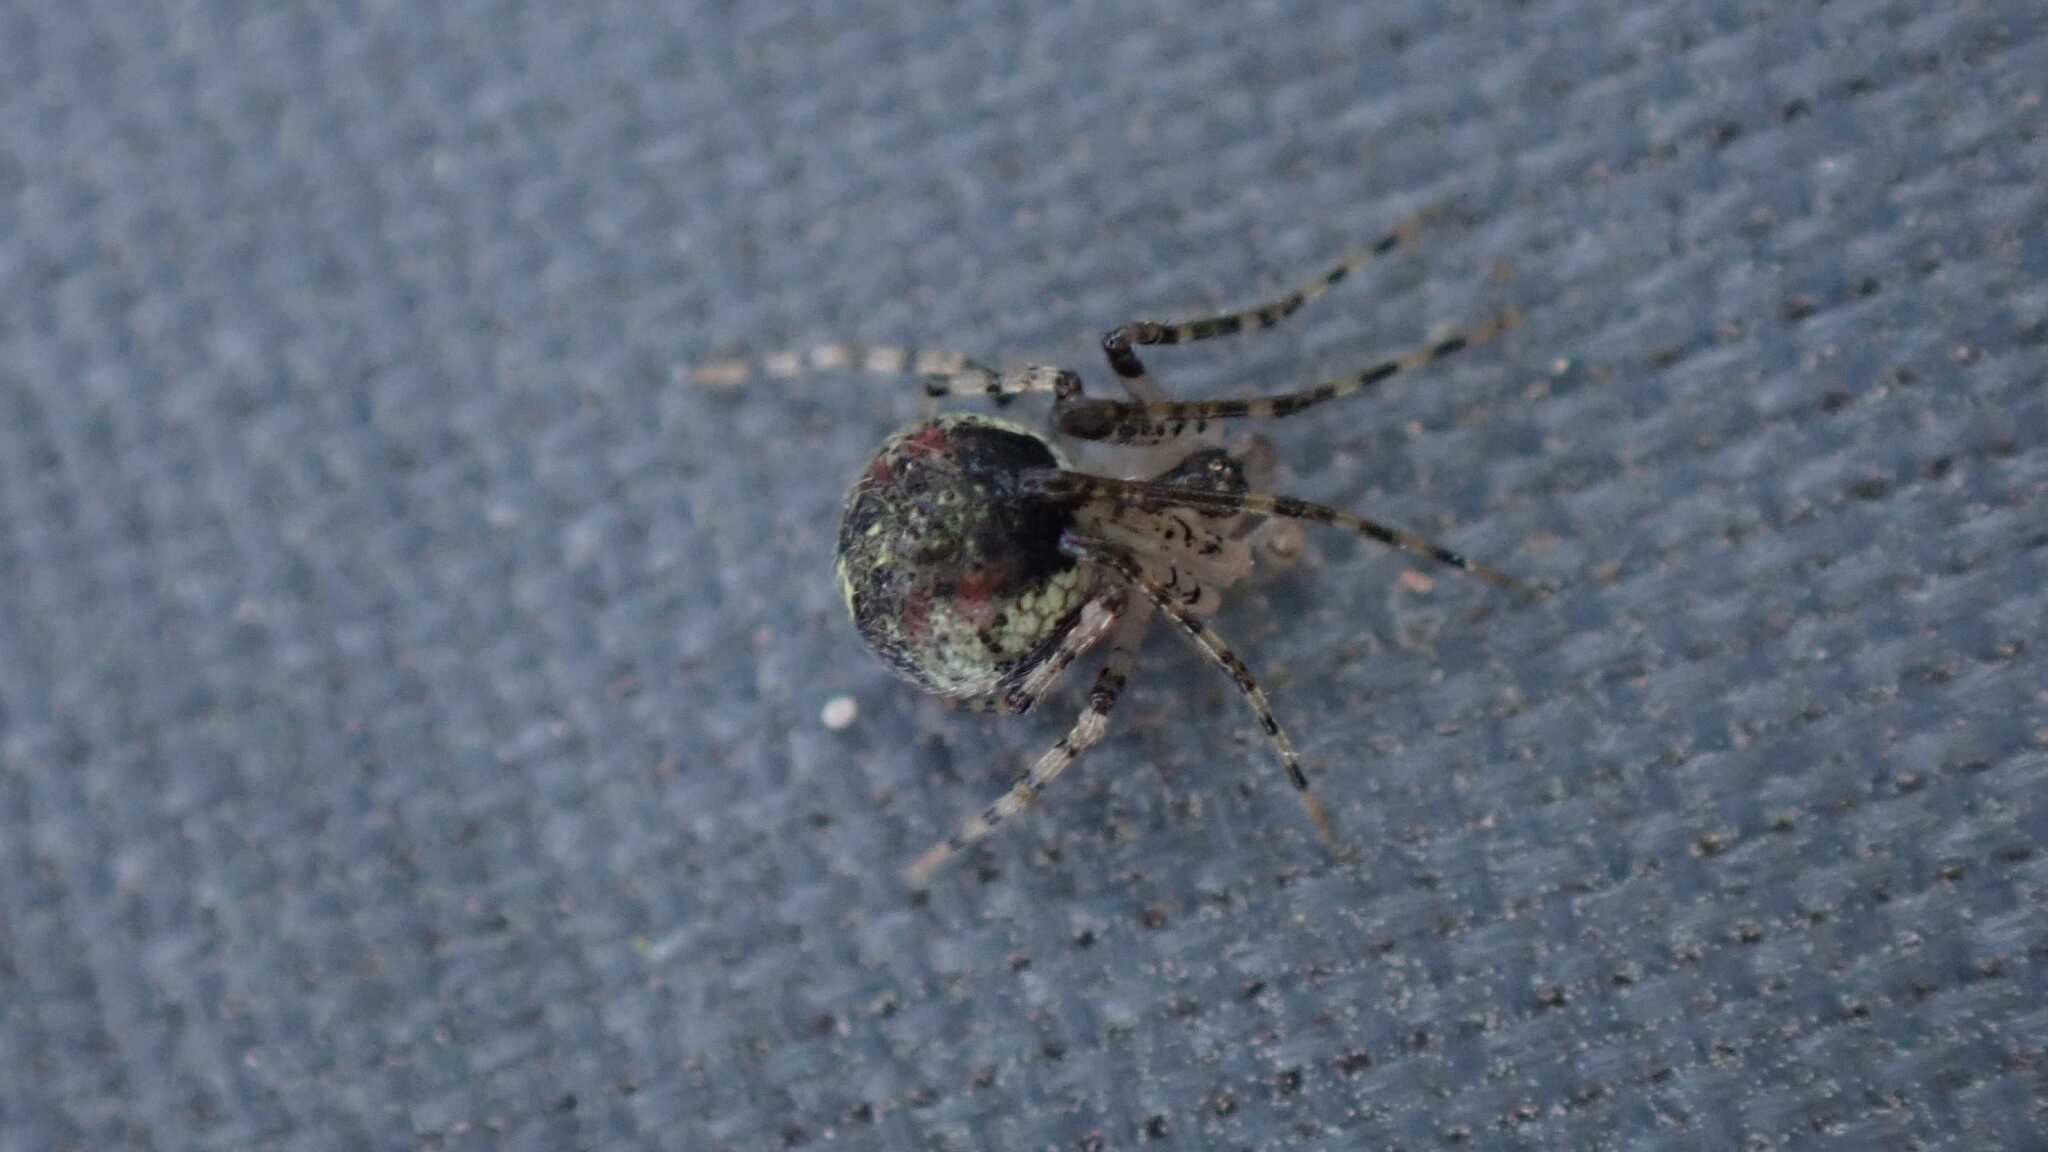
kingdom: Animalia
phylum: Arthropoda
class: Arachnida
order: Araneae
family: Theridiidae
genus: Platnickina
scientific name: Platnickina tincta
